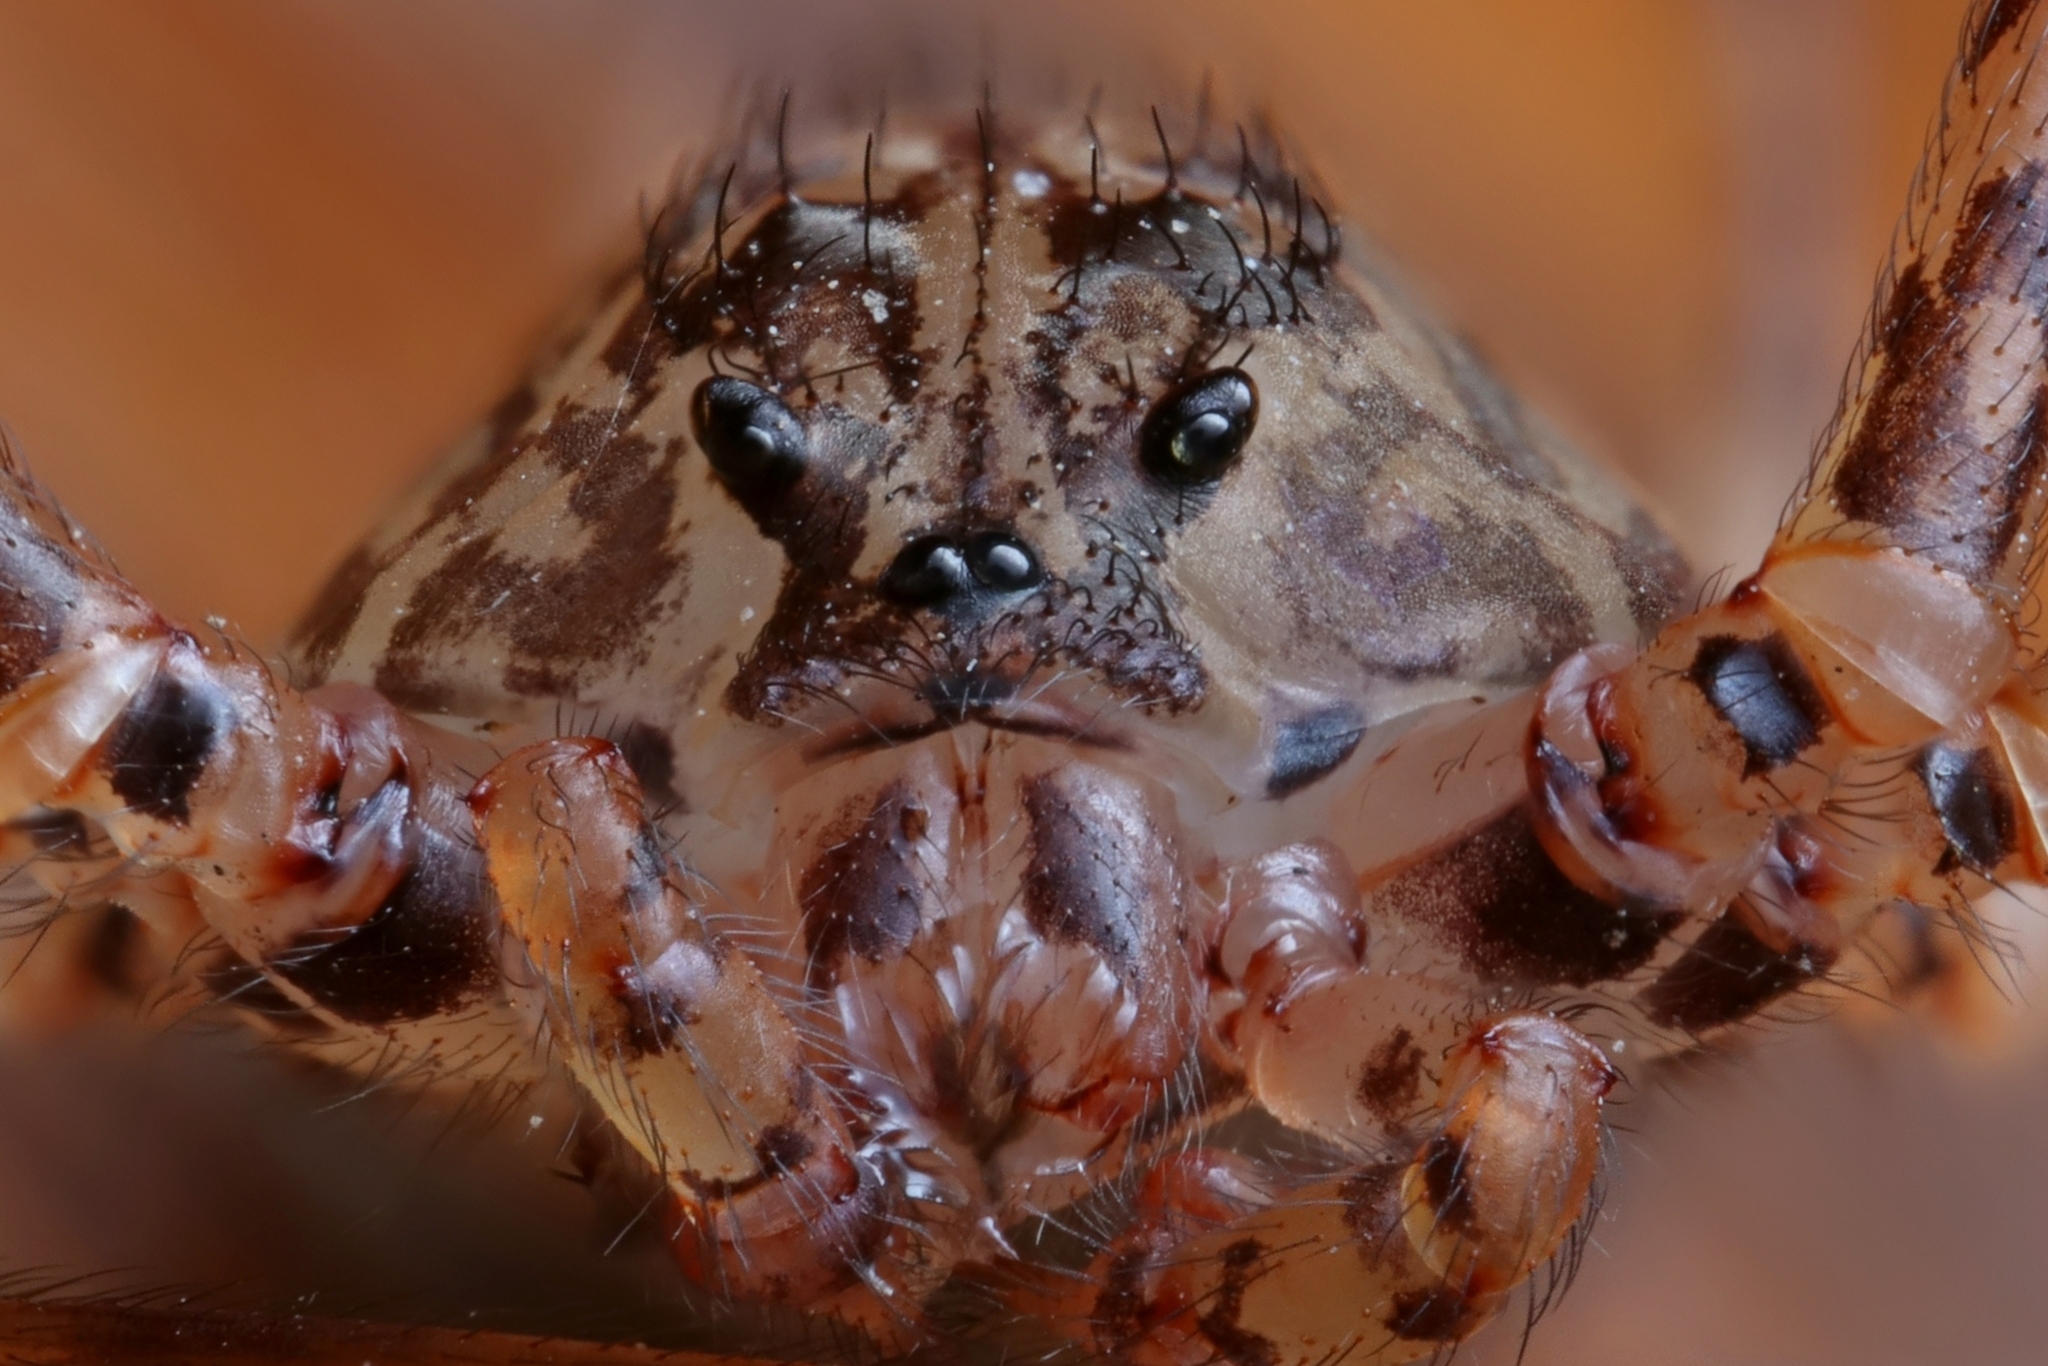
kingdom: Animalia
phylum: Arthropoda
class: Arachnida
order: Araneae
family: Scytodidae
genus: Scytodes
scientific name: Scytodes globula
